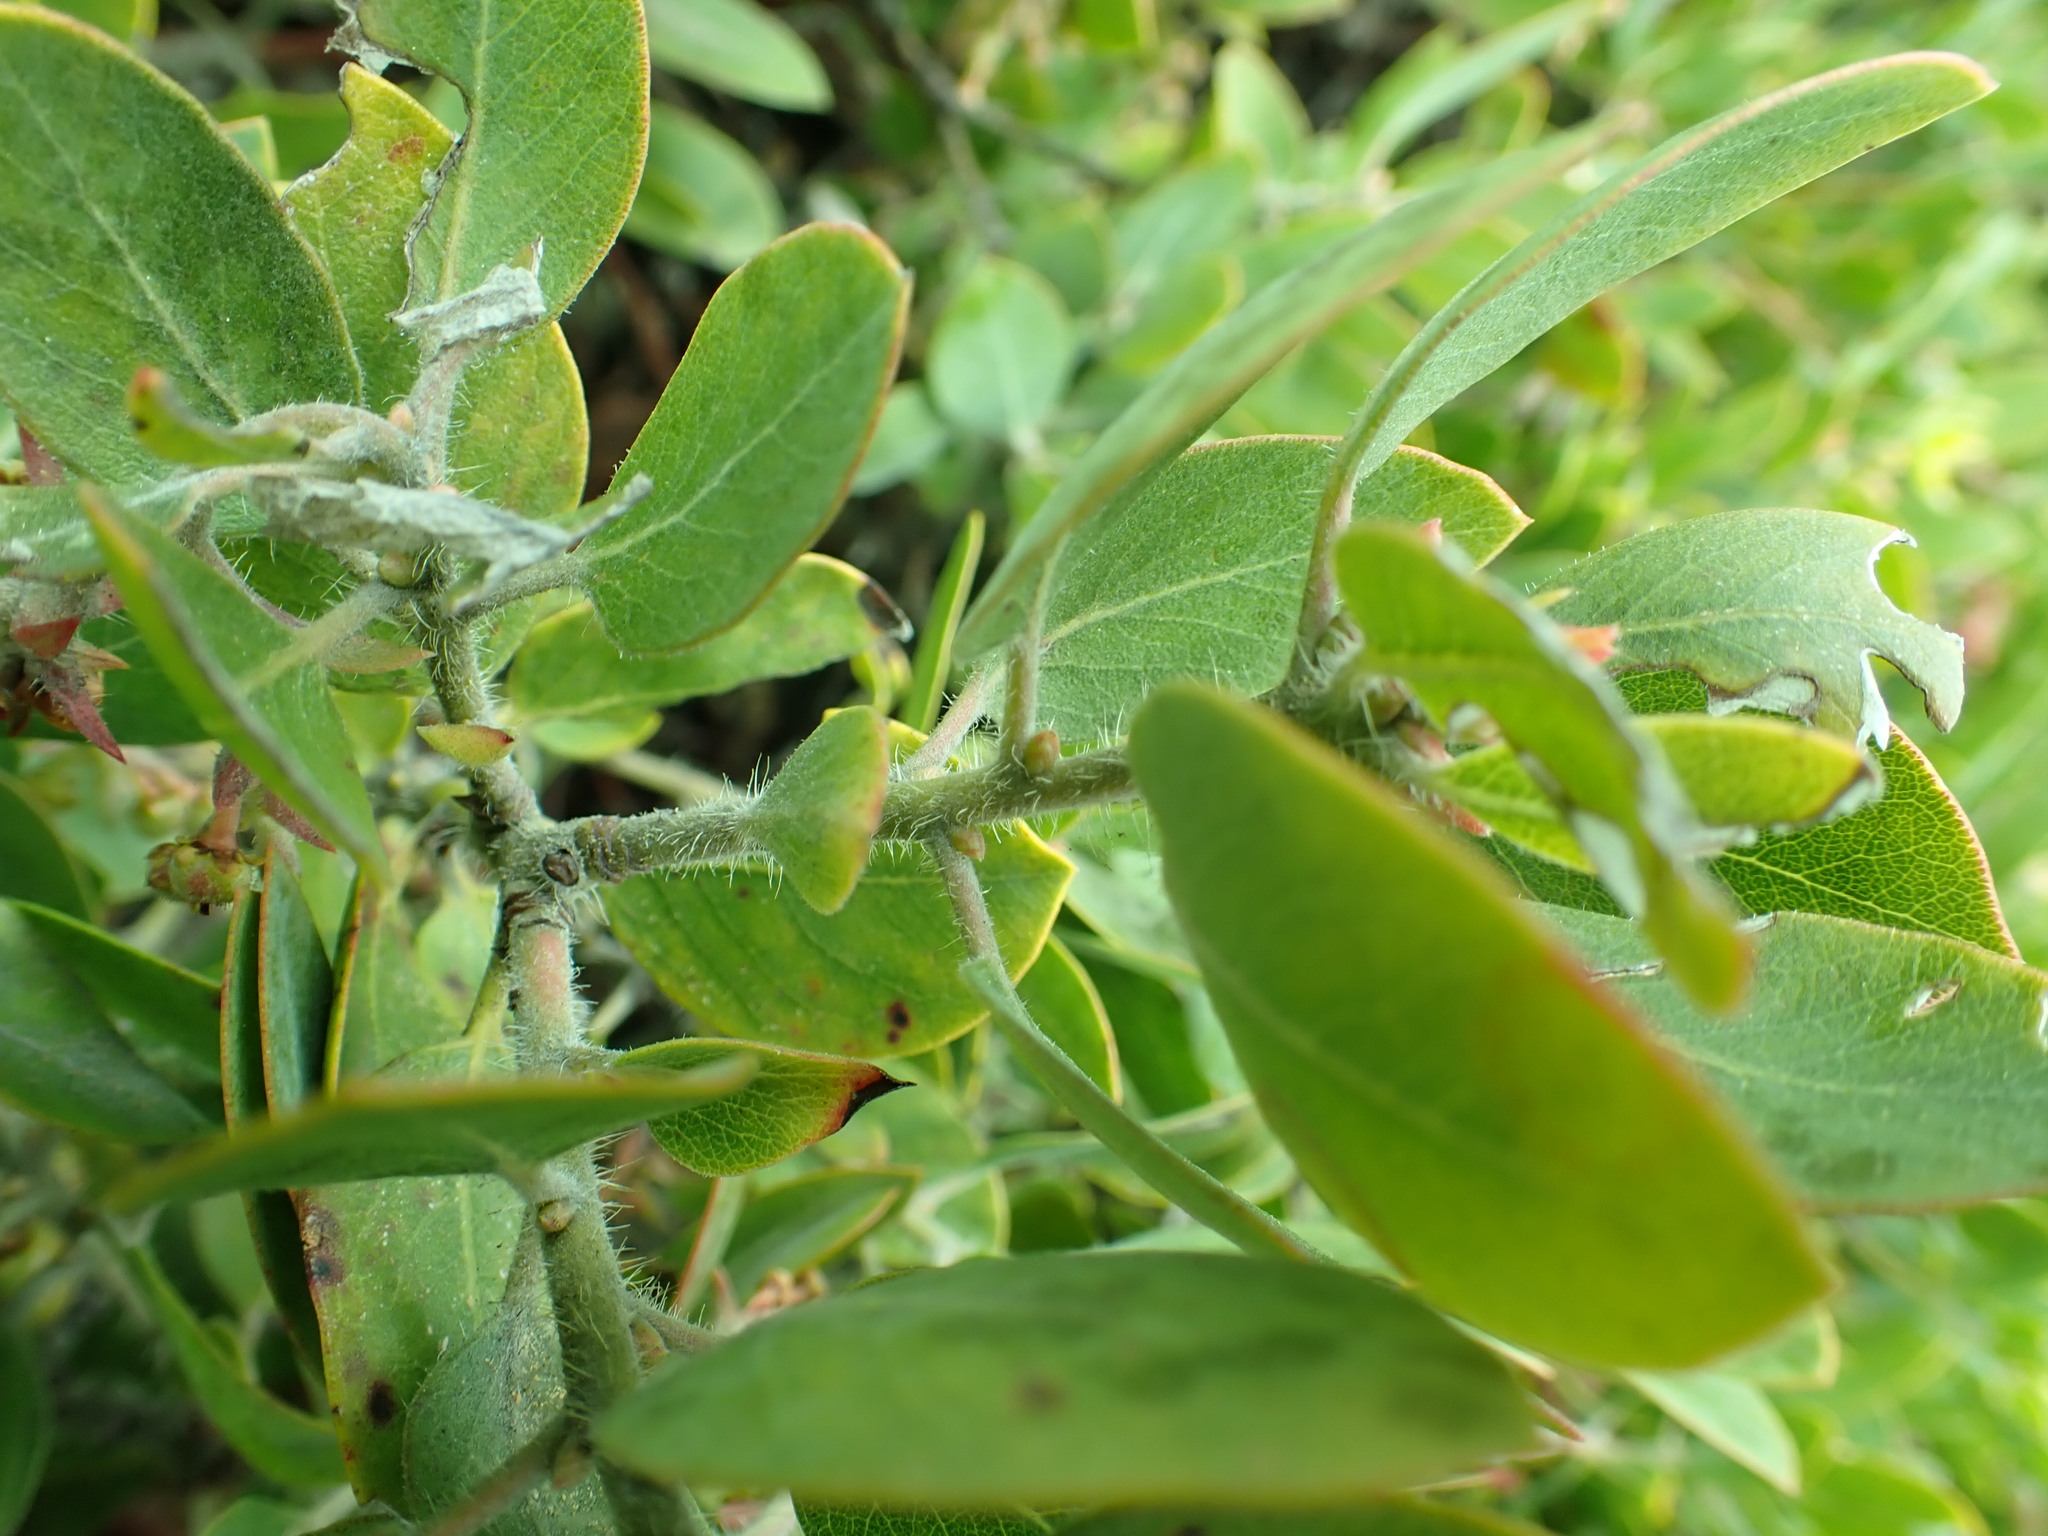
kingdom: Plantae
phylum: Tracheophyta
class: Magnoliopsida
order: Ericales
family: Ericaceae
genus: Arctostaphylos
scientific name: Arctostaphylos media
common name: Hybrid manzanita
